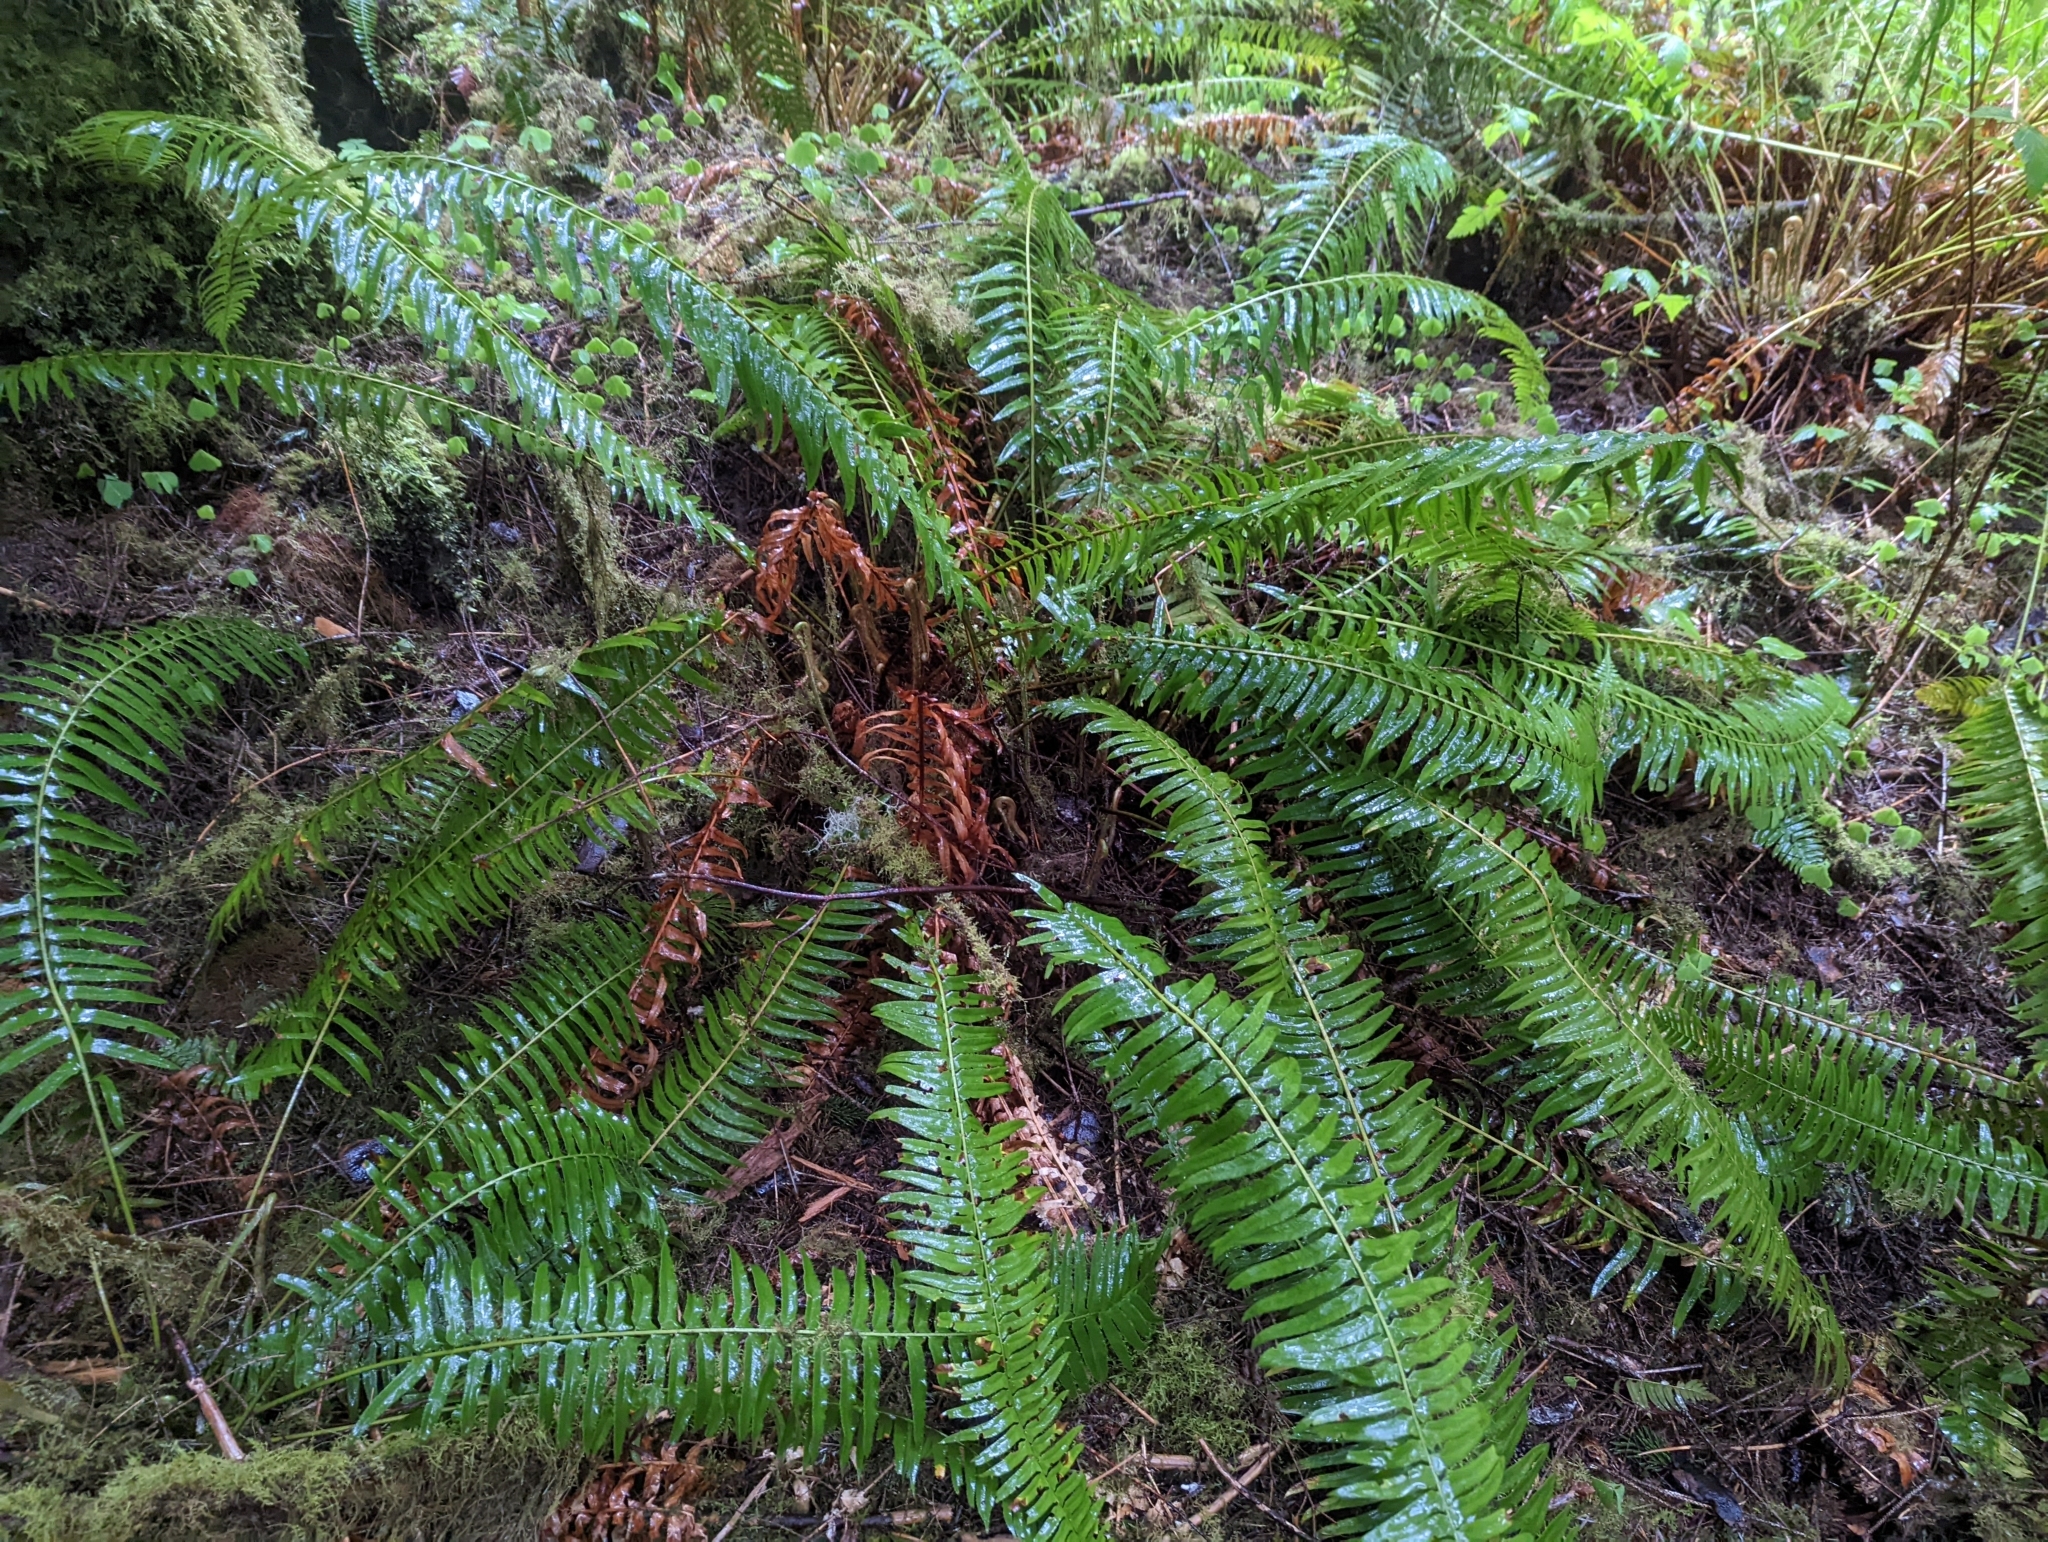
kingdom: Plantae
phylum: Tracheophyta
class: Polypodiopsida
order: Polypodiales
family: Dryopteridaceae
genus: Polystichum
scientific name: Polystichum munitum
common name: Western sword-fern
